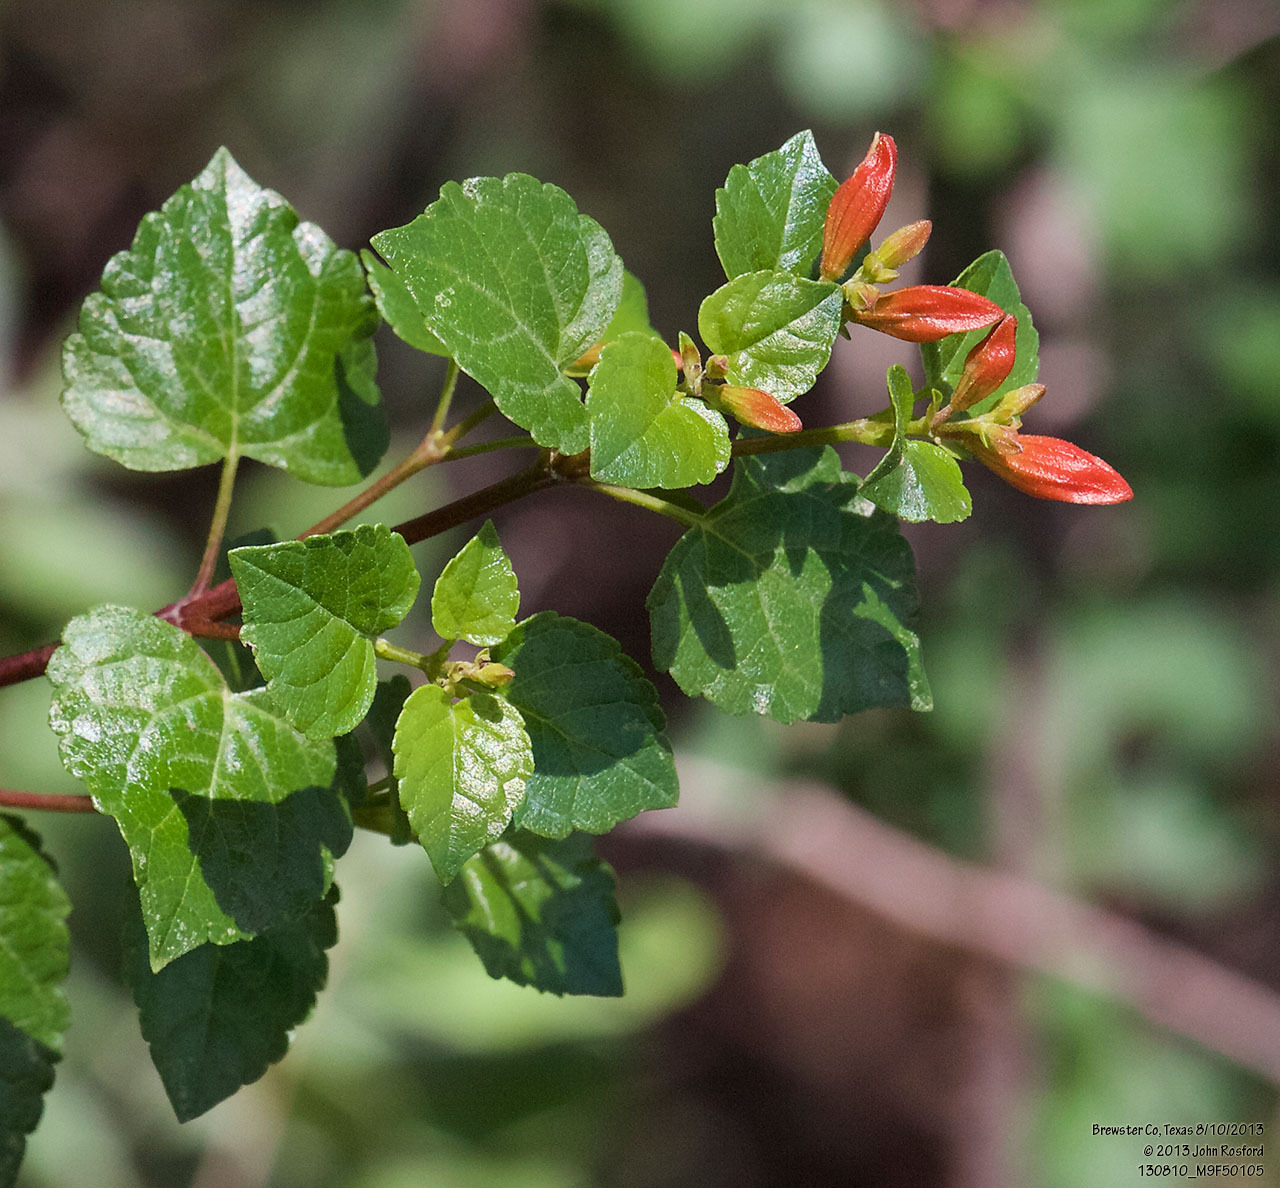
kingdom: Plantae
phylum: Tracheophyta
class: Magnoliopsida
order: Lamiales
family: Lamiaceae
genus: Salvia
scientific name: Salvia regla
